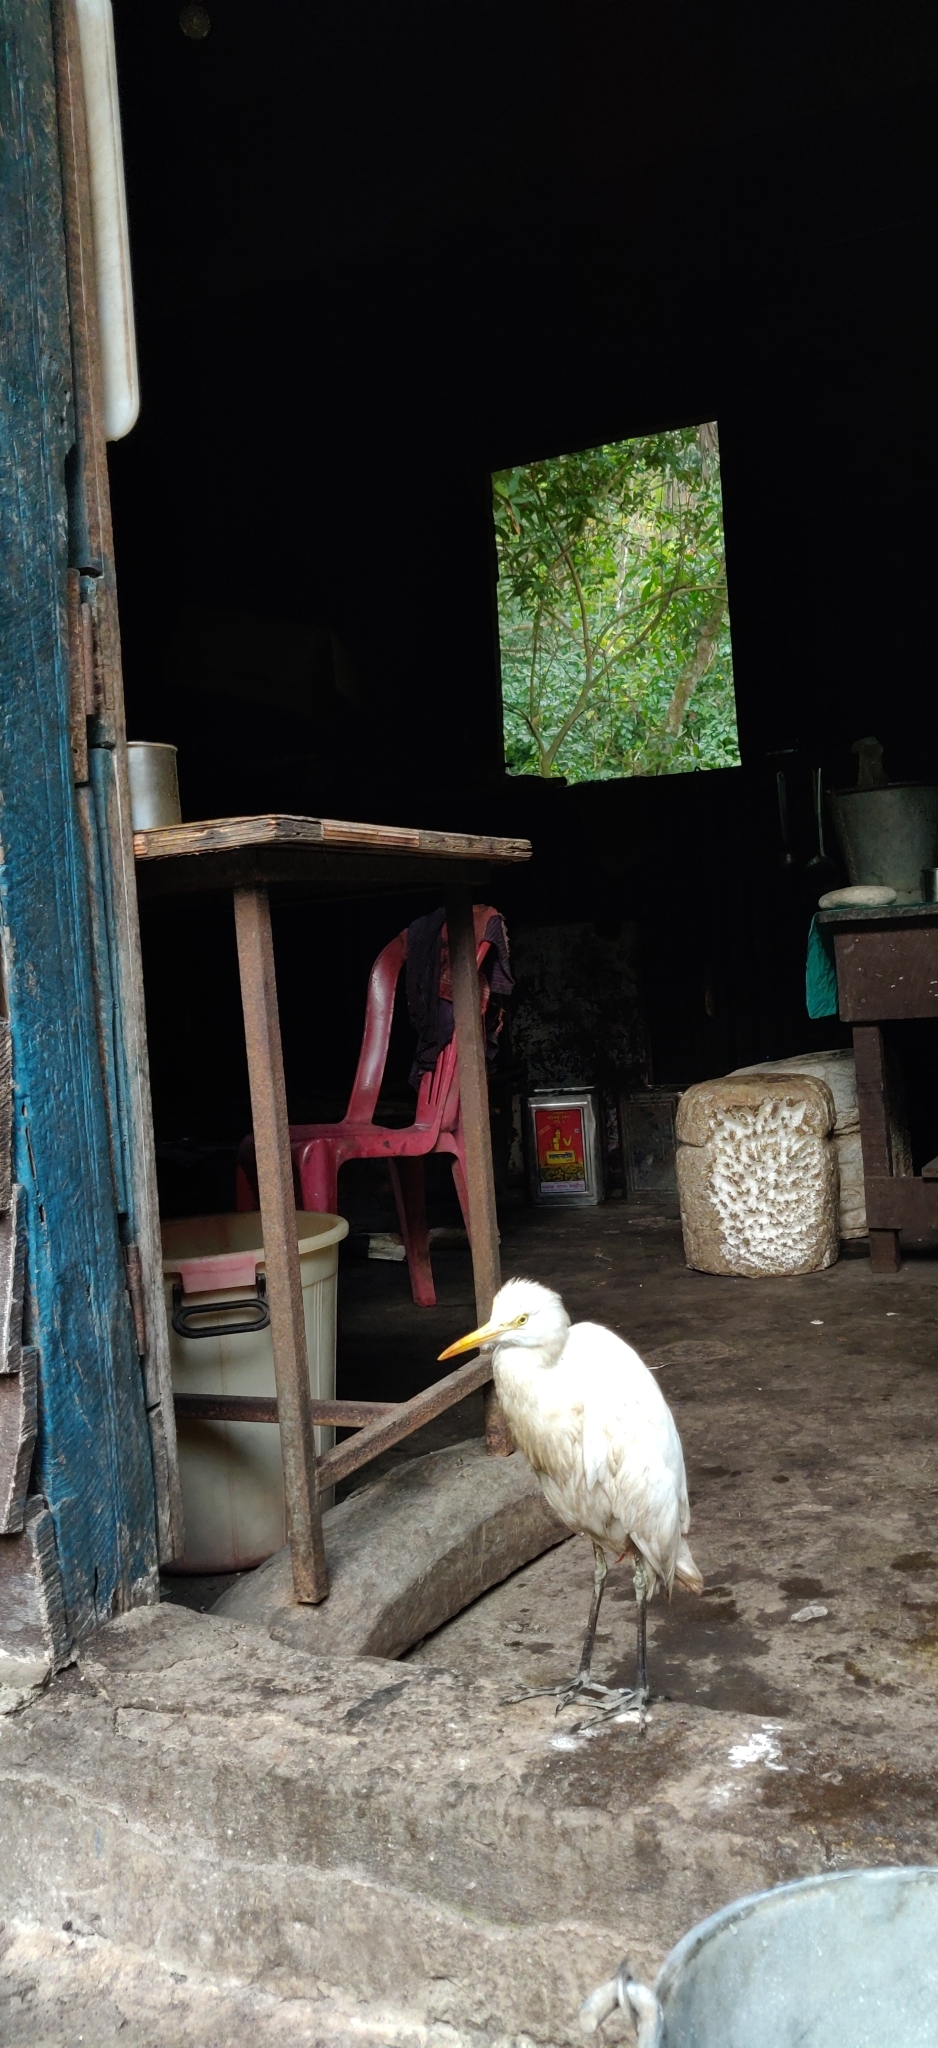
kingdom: Animalia
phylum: Chordata
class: Aves
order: Pelecaniformes
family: Ardeidae
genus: Bubulcus
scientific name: Bubulcus coromandus
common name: Eastern cattle egret
